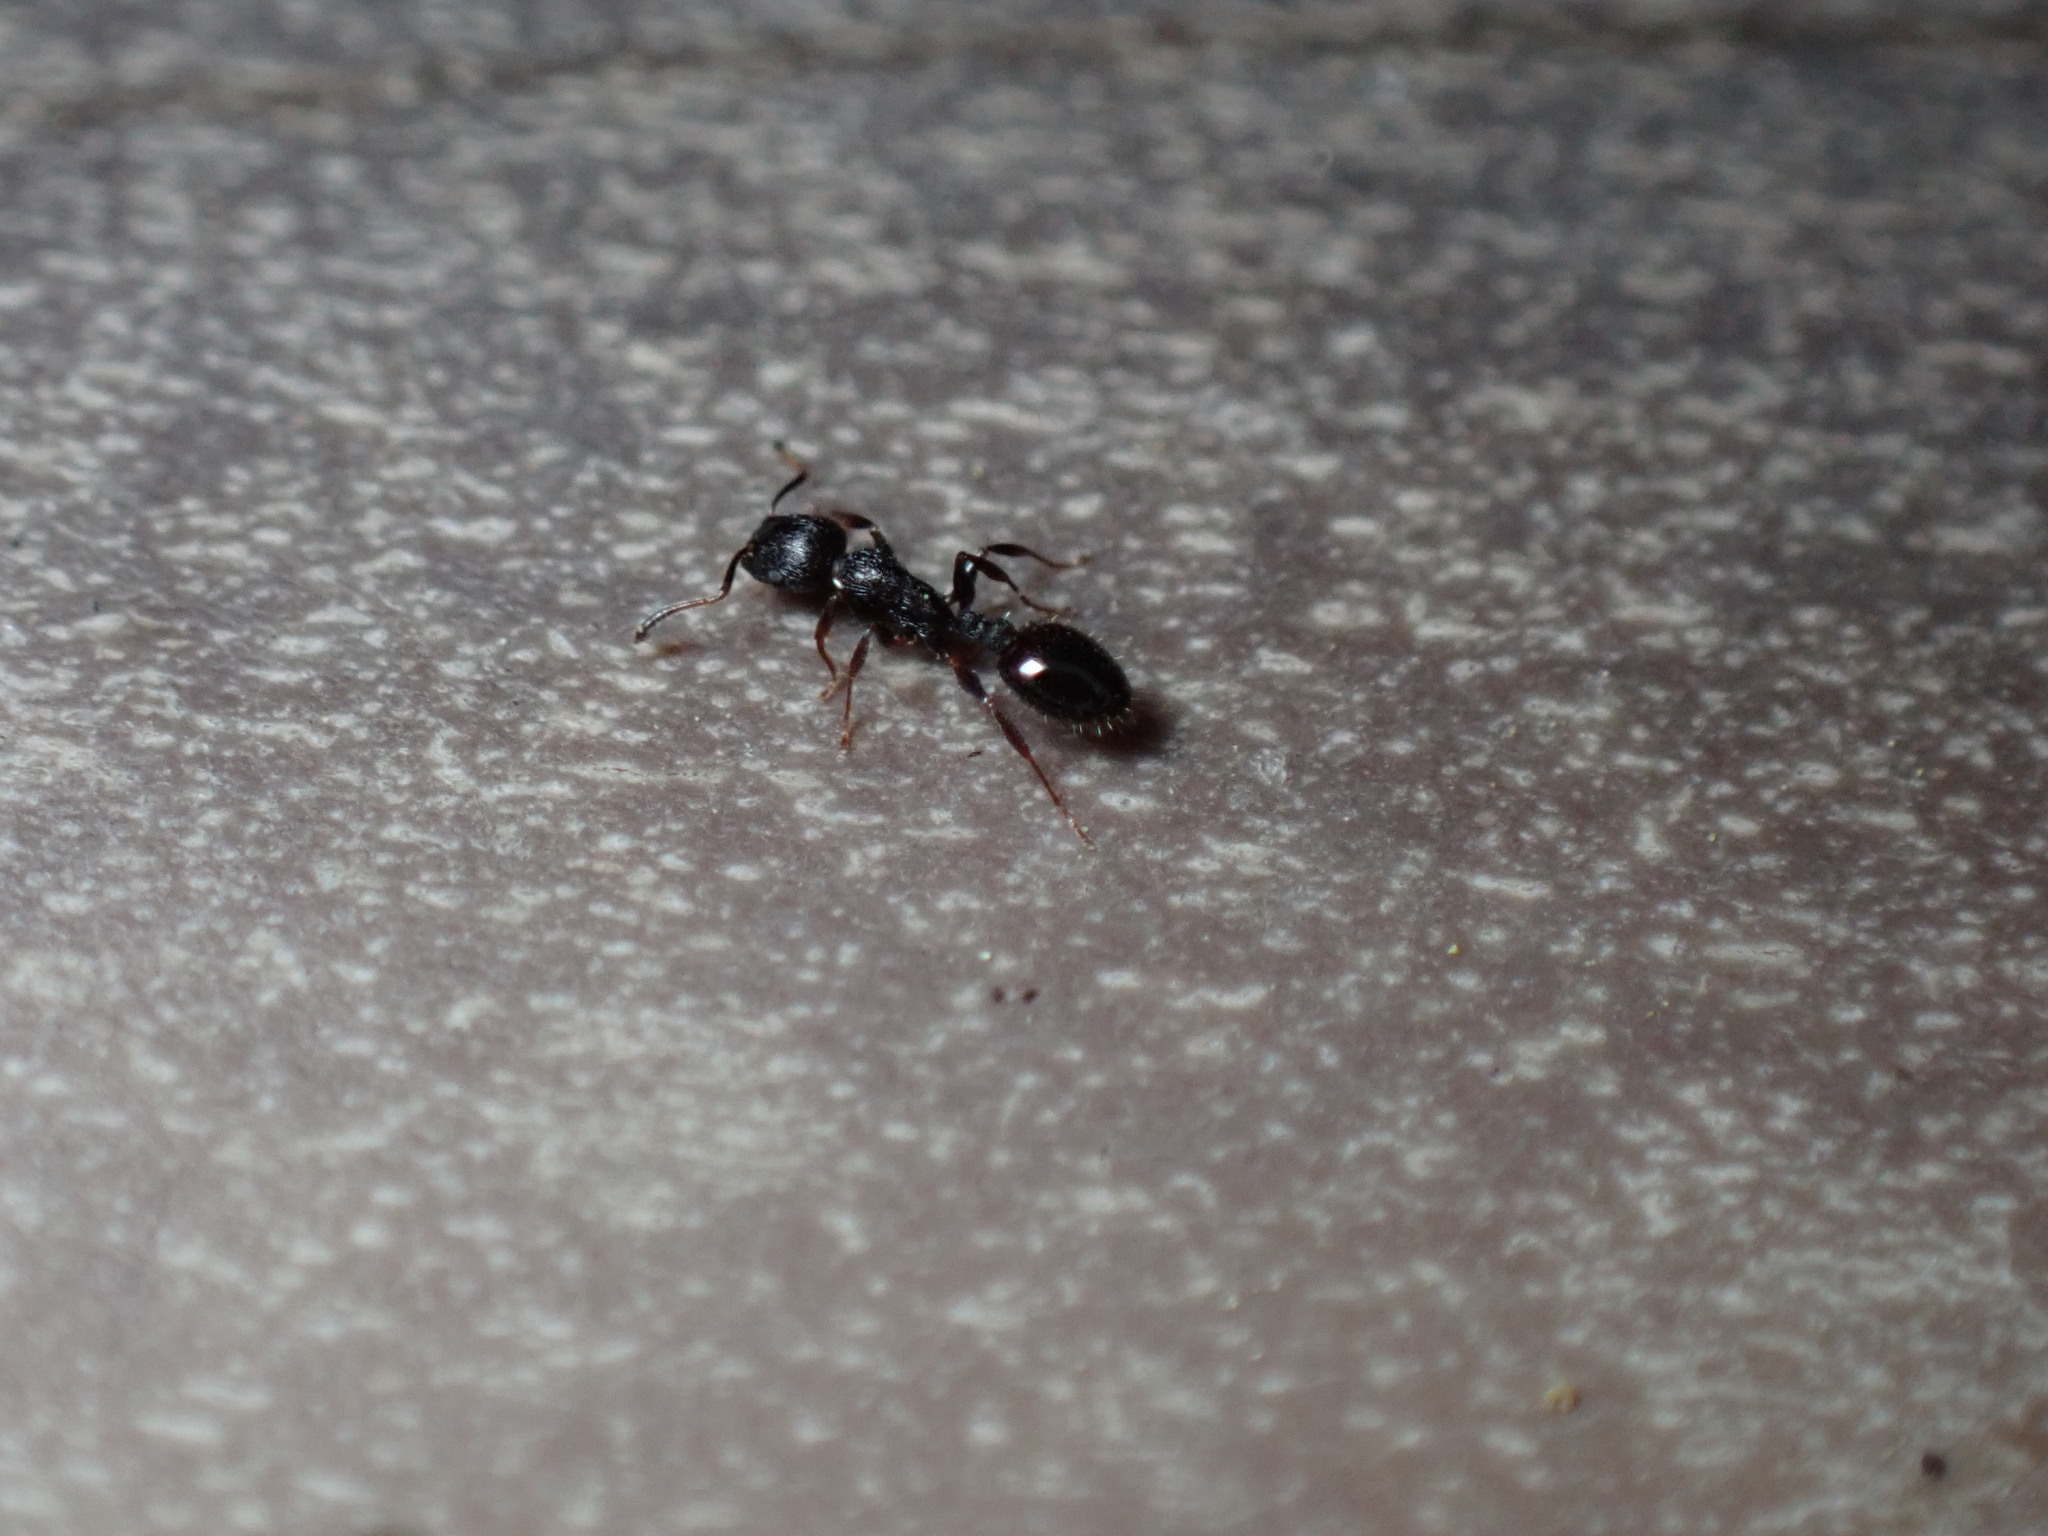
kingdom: Animalia
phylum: Arthropoda
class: Insecta
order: Hymenoptera
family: Formicidae
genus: Temnothorax
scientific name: Temnothorax
